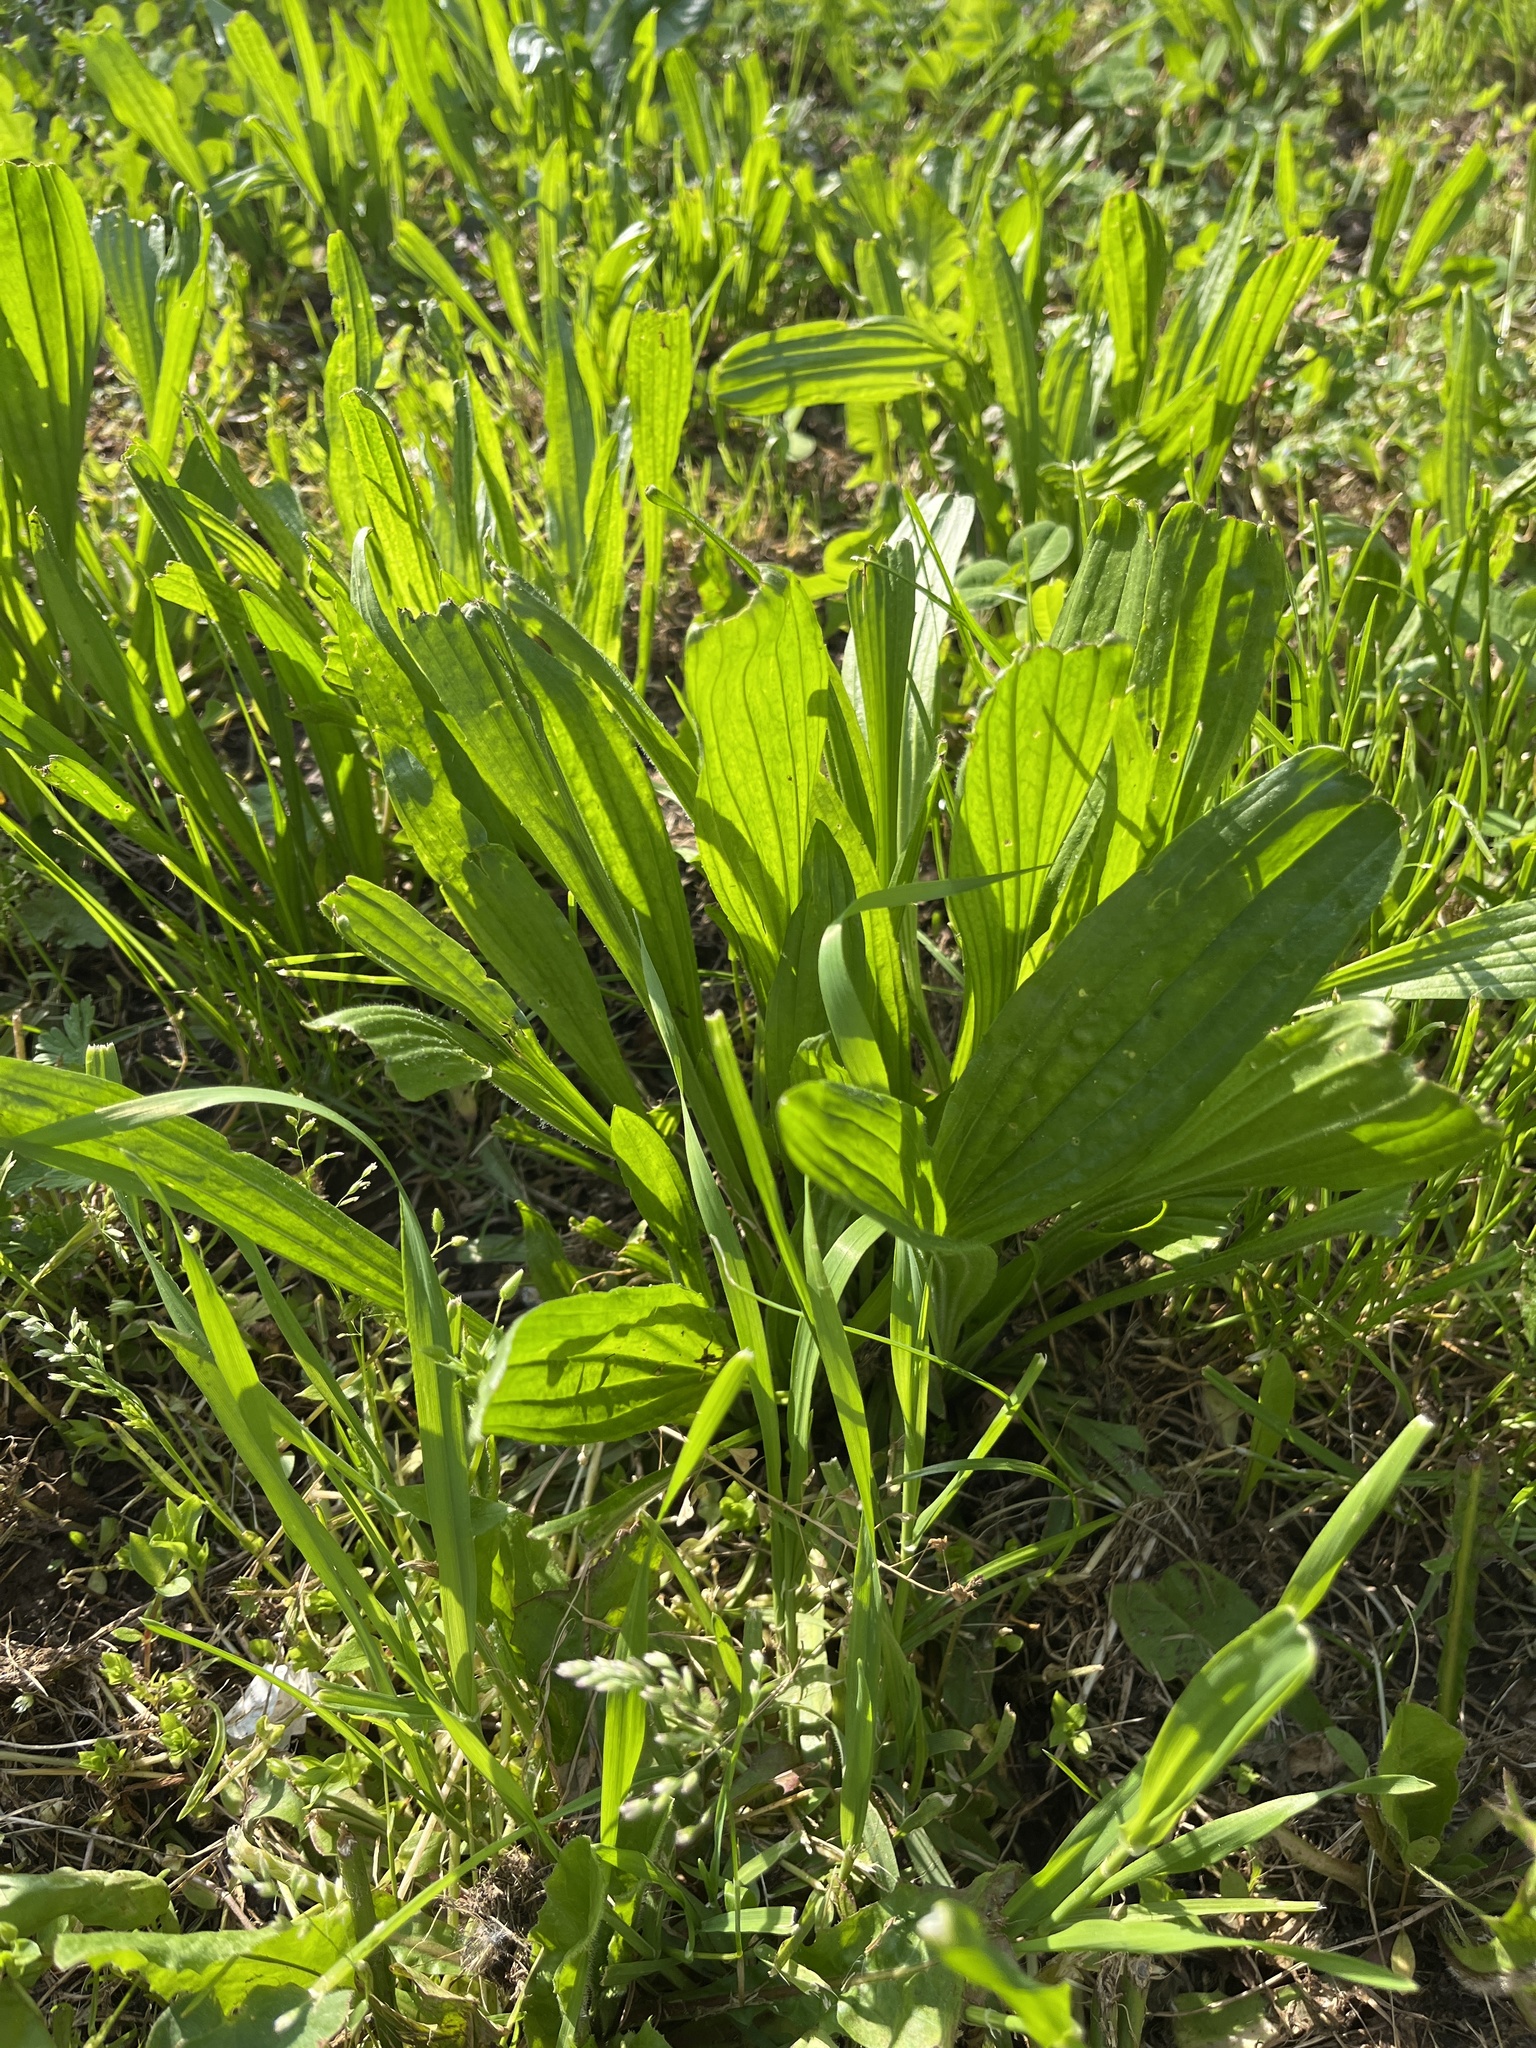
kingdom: Plantae
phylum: Tracheophyta
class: Magnoliopsida
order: Lamiales
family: Plantaginaceae
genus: Plantago
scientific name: Plantago lanceolata
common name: Ribwort plantain
